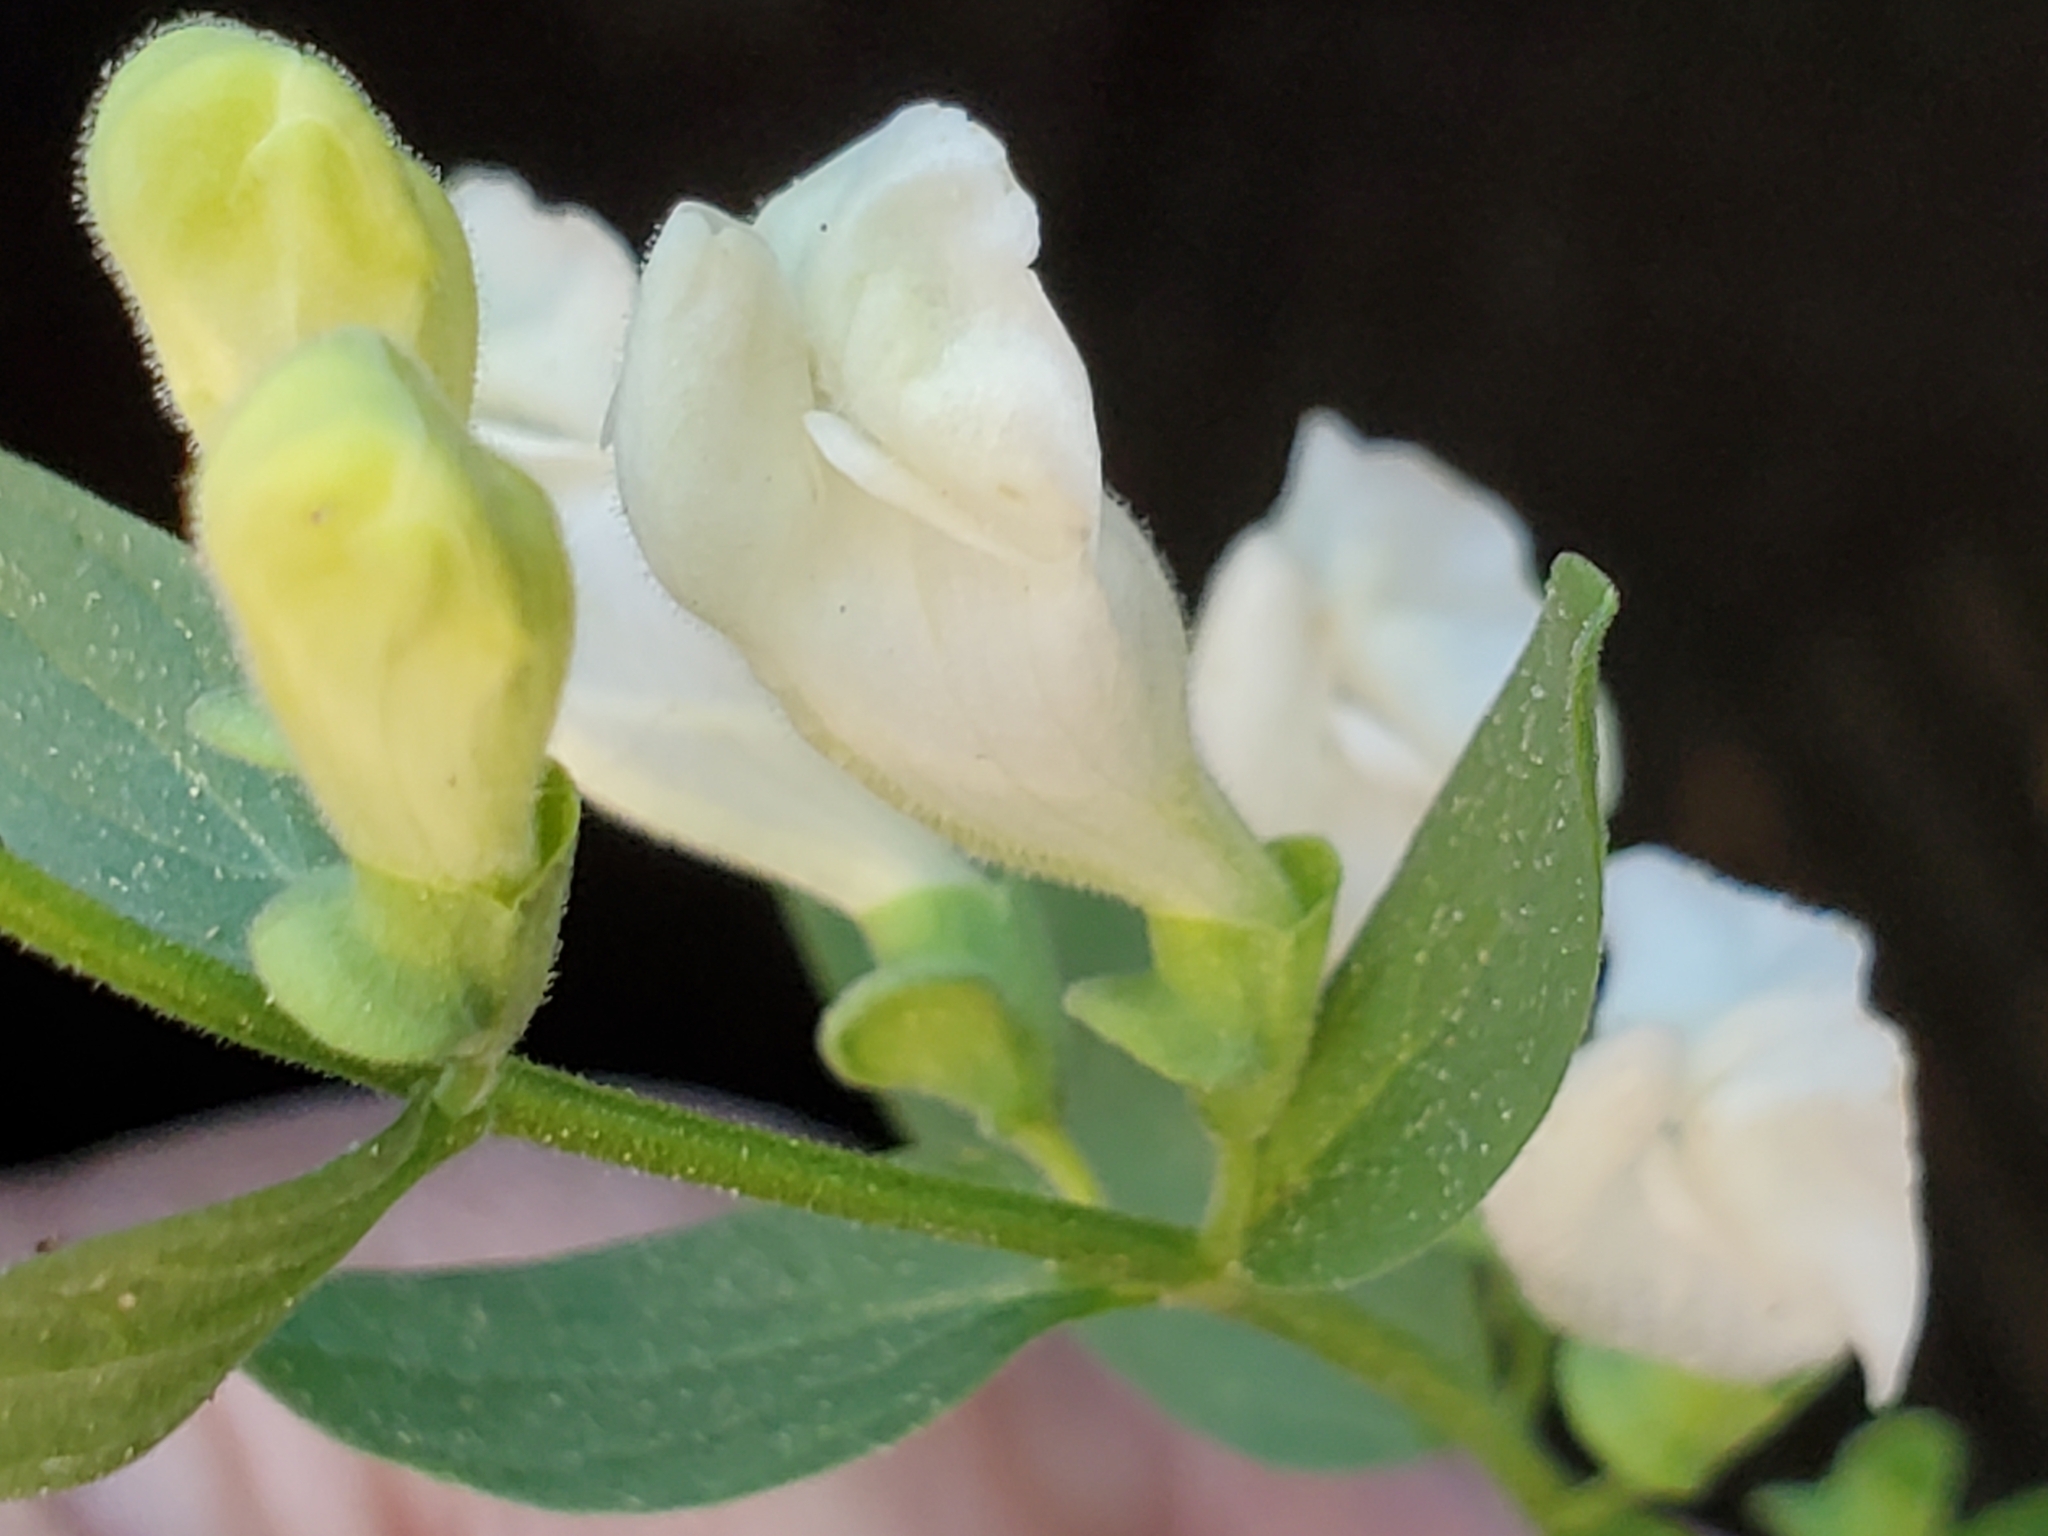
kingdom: Plantae
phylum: Tracheophyta
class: Magnoliopsida
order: Lamiales
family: Lamiaceae
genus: Scutellaria
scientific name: Scutellaria californica
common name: California scullcap
